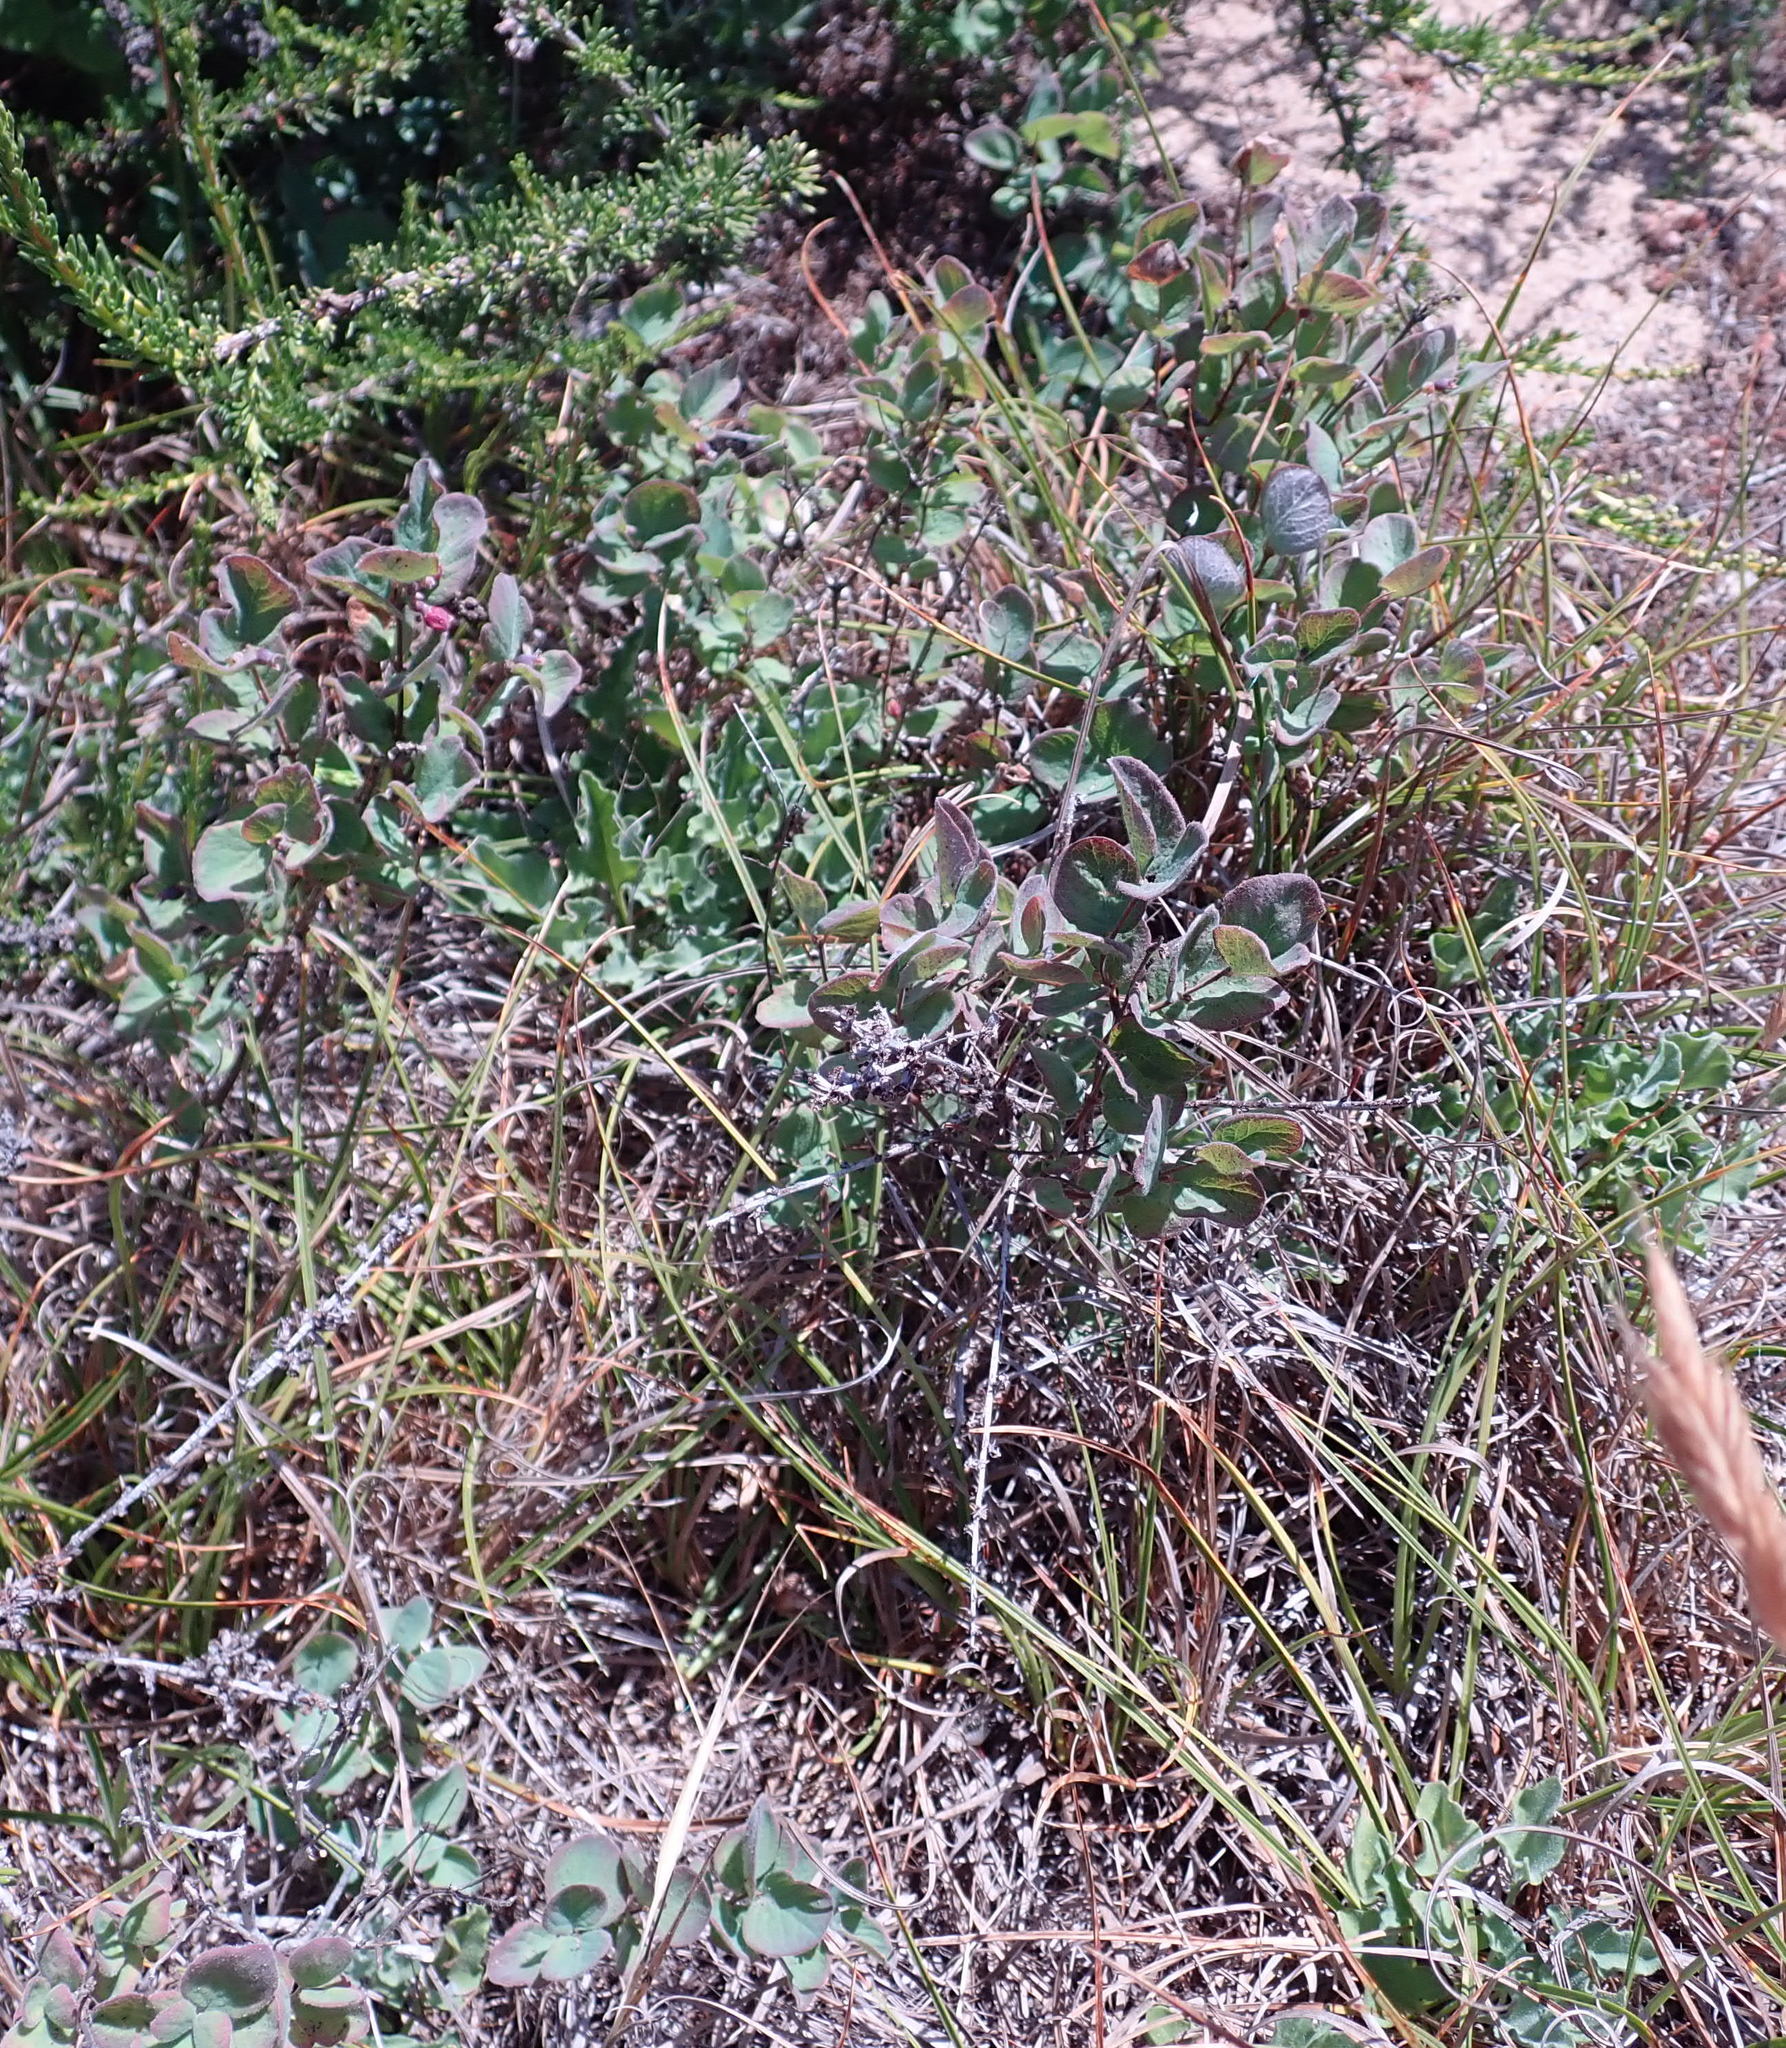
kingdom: Plantae
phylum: Tracheophyta
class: Magnoliopsida
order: Dipsacales
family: Caprifoliaceae
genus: Symphoricarpos
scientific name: Symphoricarpos mollis
